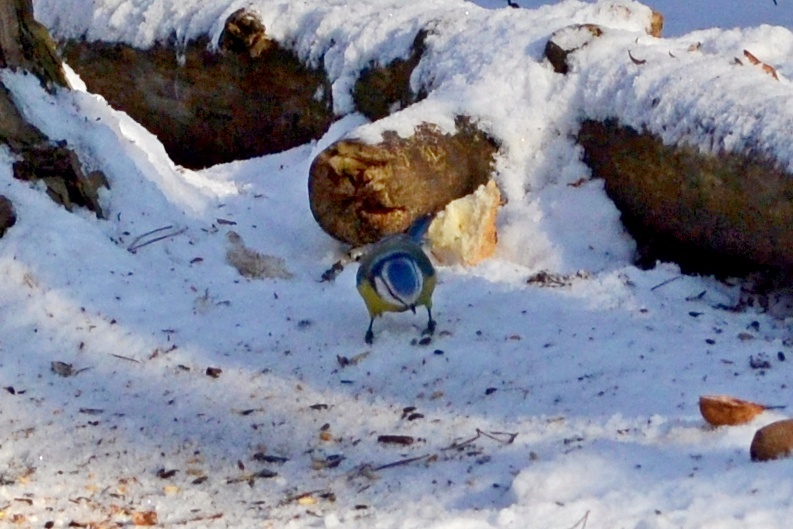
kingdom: Animalia
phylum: Chordata
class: Aves
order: Passeriformes
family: Paridae
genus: Cyanistes
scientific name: Cyanistes caeruleus
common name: Eurasian blue tit
